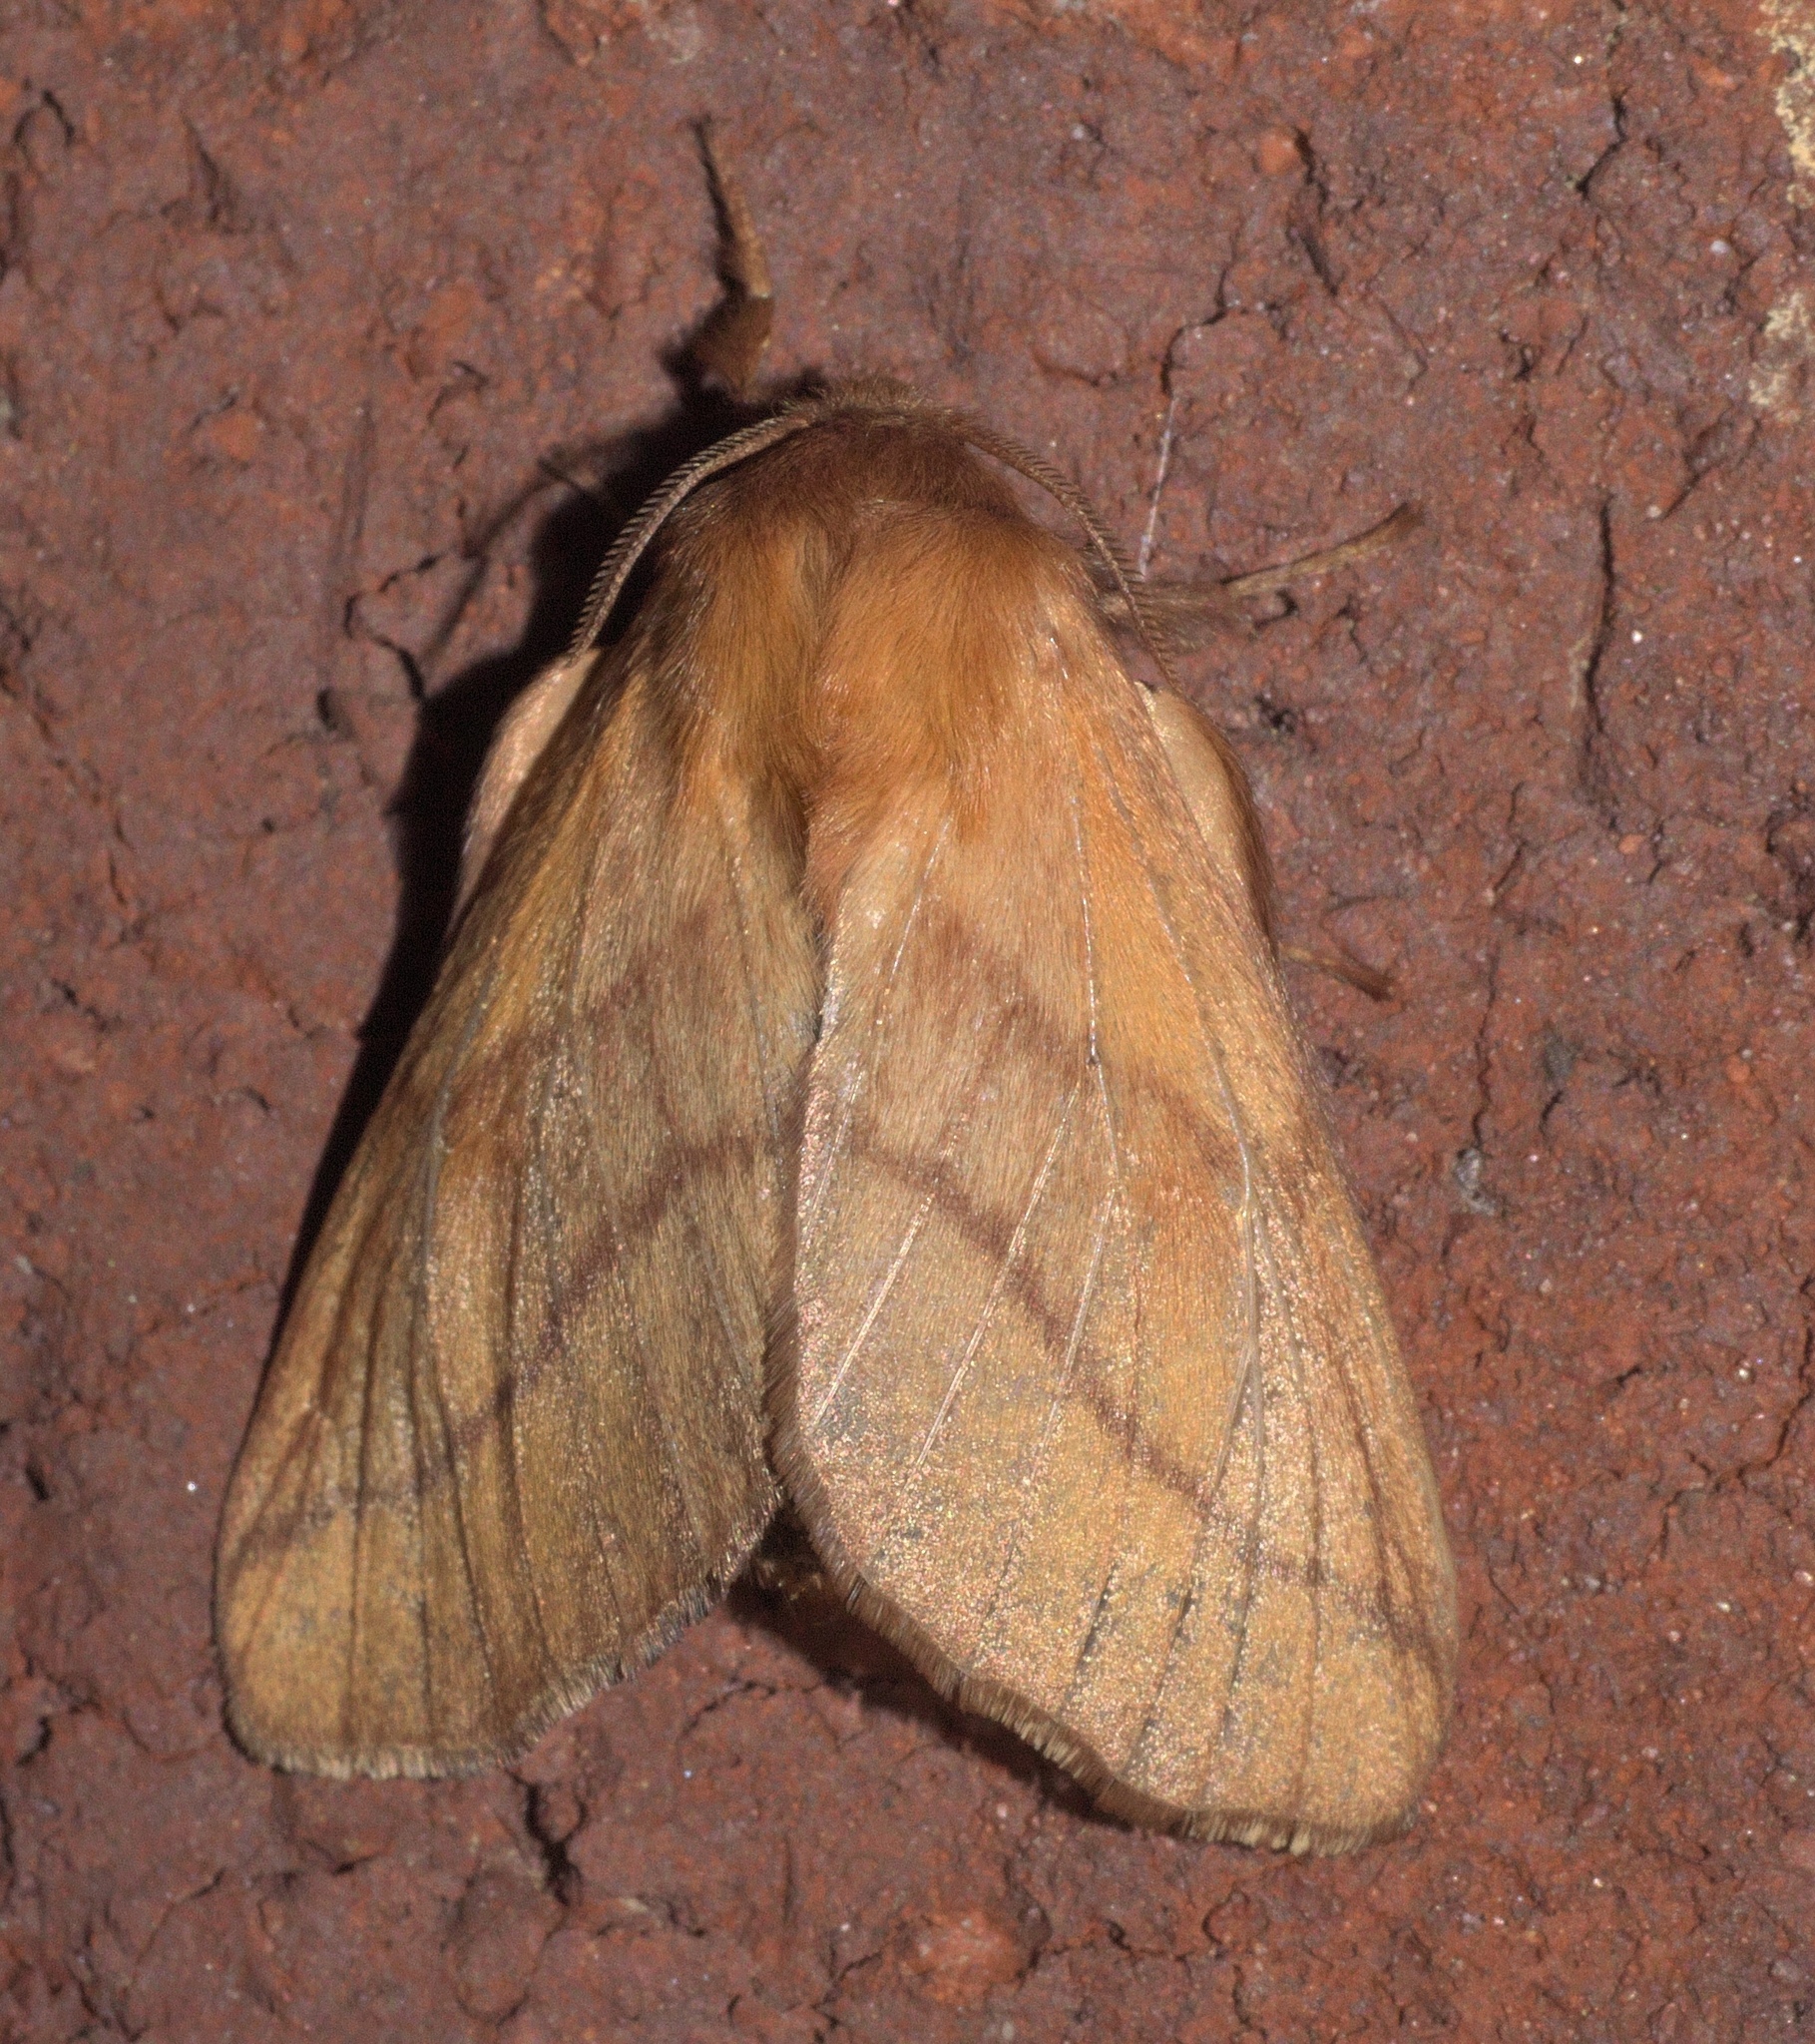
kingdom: Animalia
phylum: Arthropoda
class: Insecta
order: Lepidoptera
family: Lasiocampidae
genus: Malacosoma
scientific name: Malacosoma disstria
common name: Forest tent caterpillar
